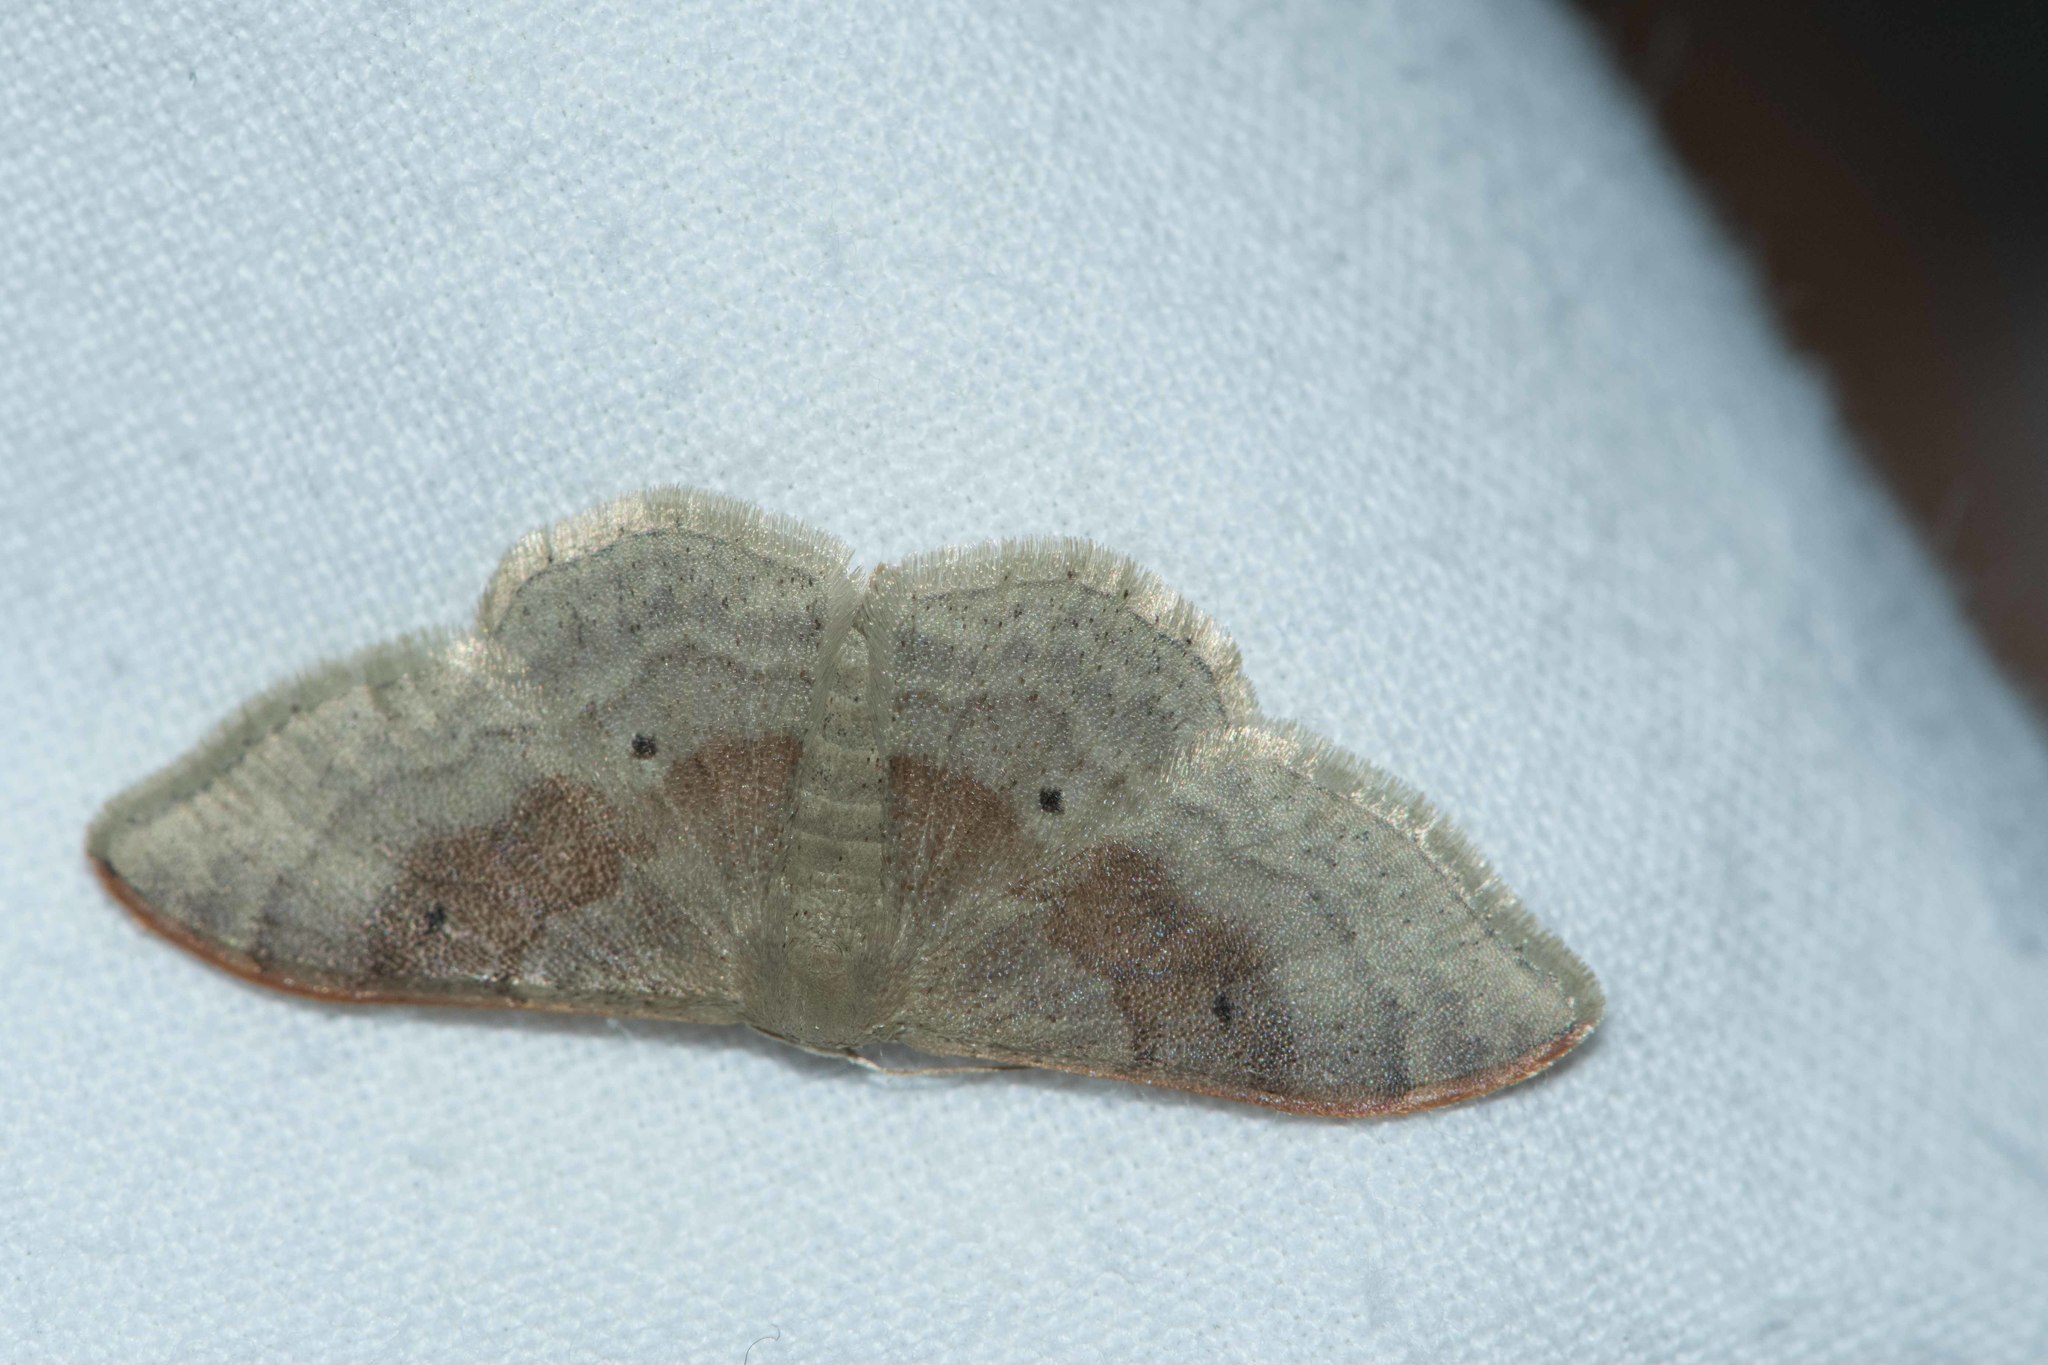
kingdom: Animalia
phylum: Arthropoda
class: Insecta
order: Lepidoptera
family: Geometridae
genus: Idaea
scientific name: Idaea degeneraria
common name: Portland ribbon wave
